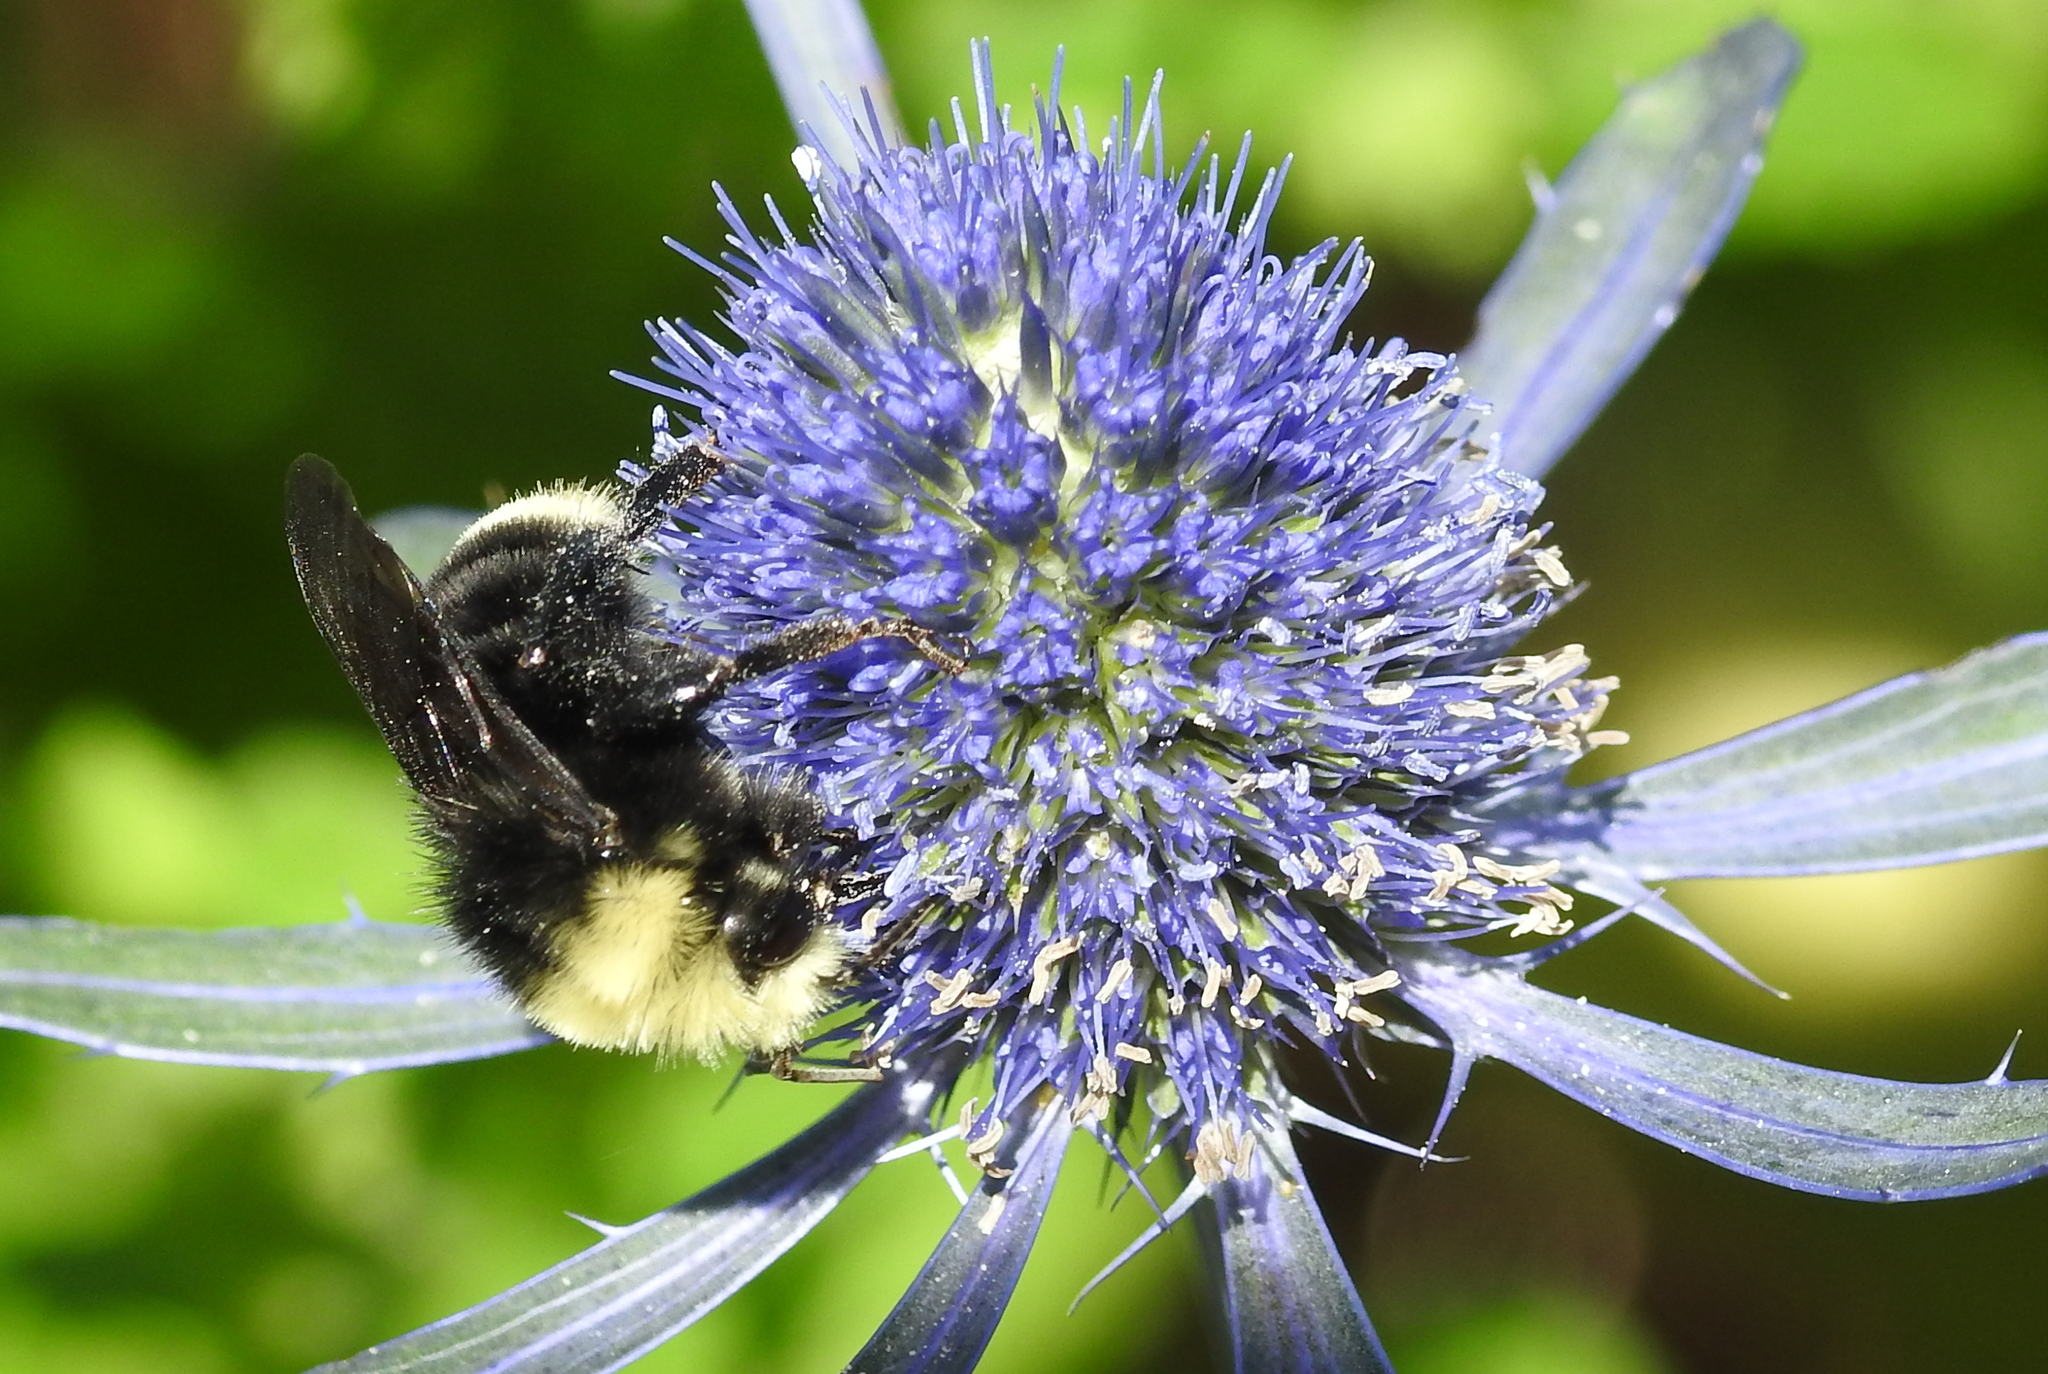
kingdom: Animalia
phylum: Arthropoda
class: Insecta
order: Hymenoptera
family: Apidae
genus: Bombus
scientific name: Bombus vosnesenskii
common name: Vosnesensky bumble bee
